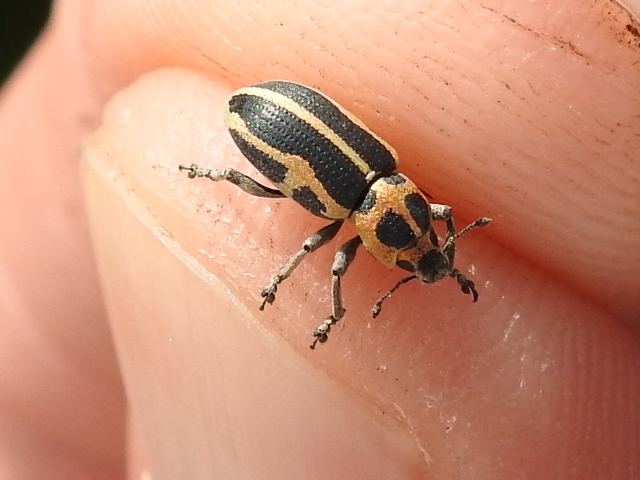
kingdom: Animalia
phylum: Arthropoda
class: Insecta
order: Coleoptera
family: Curculionidae
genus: Eudiagogus
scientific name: Eudiagogus pulcher
